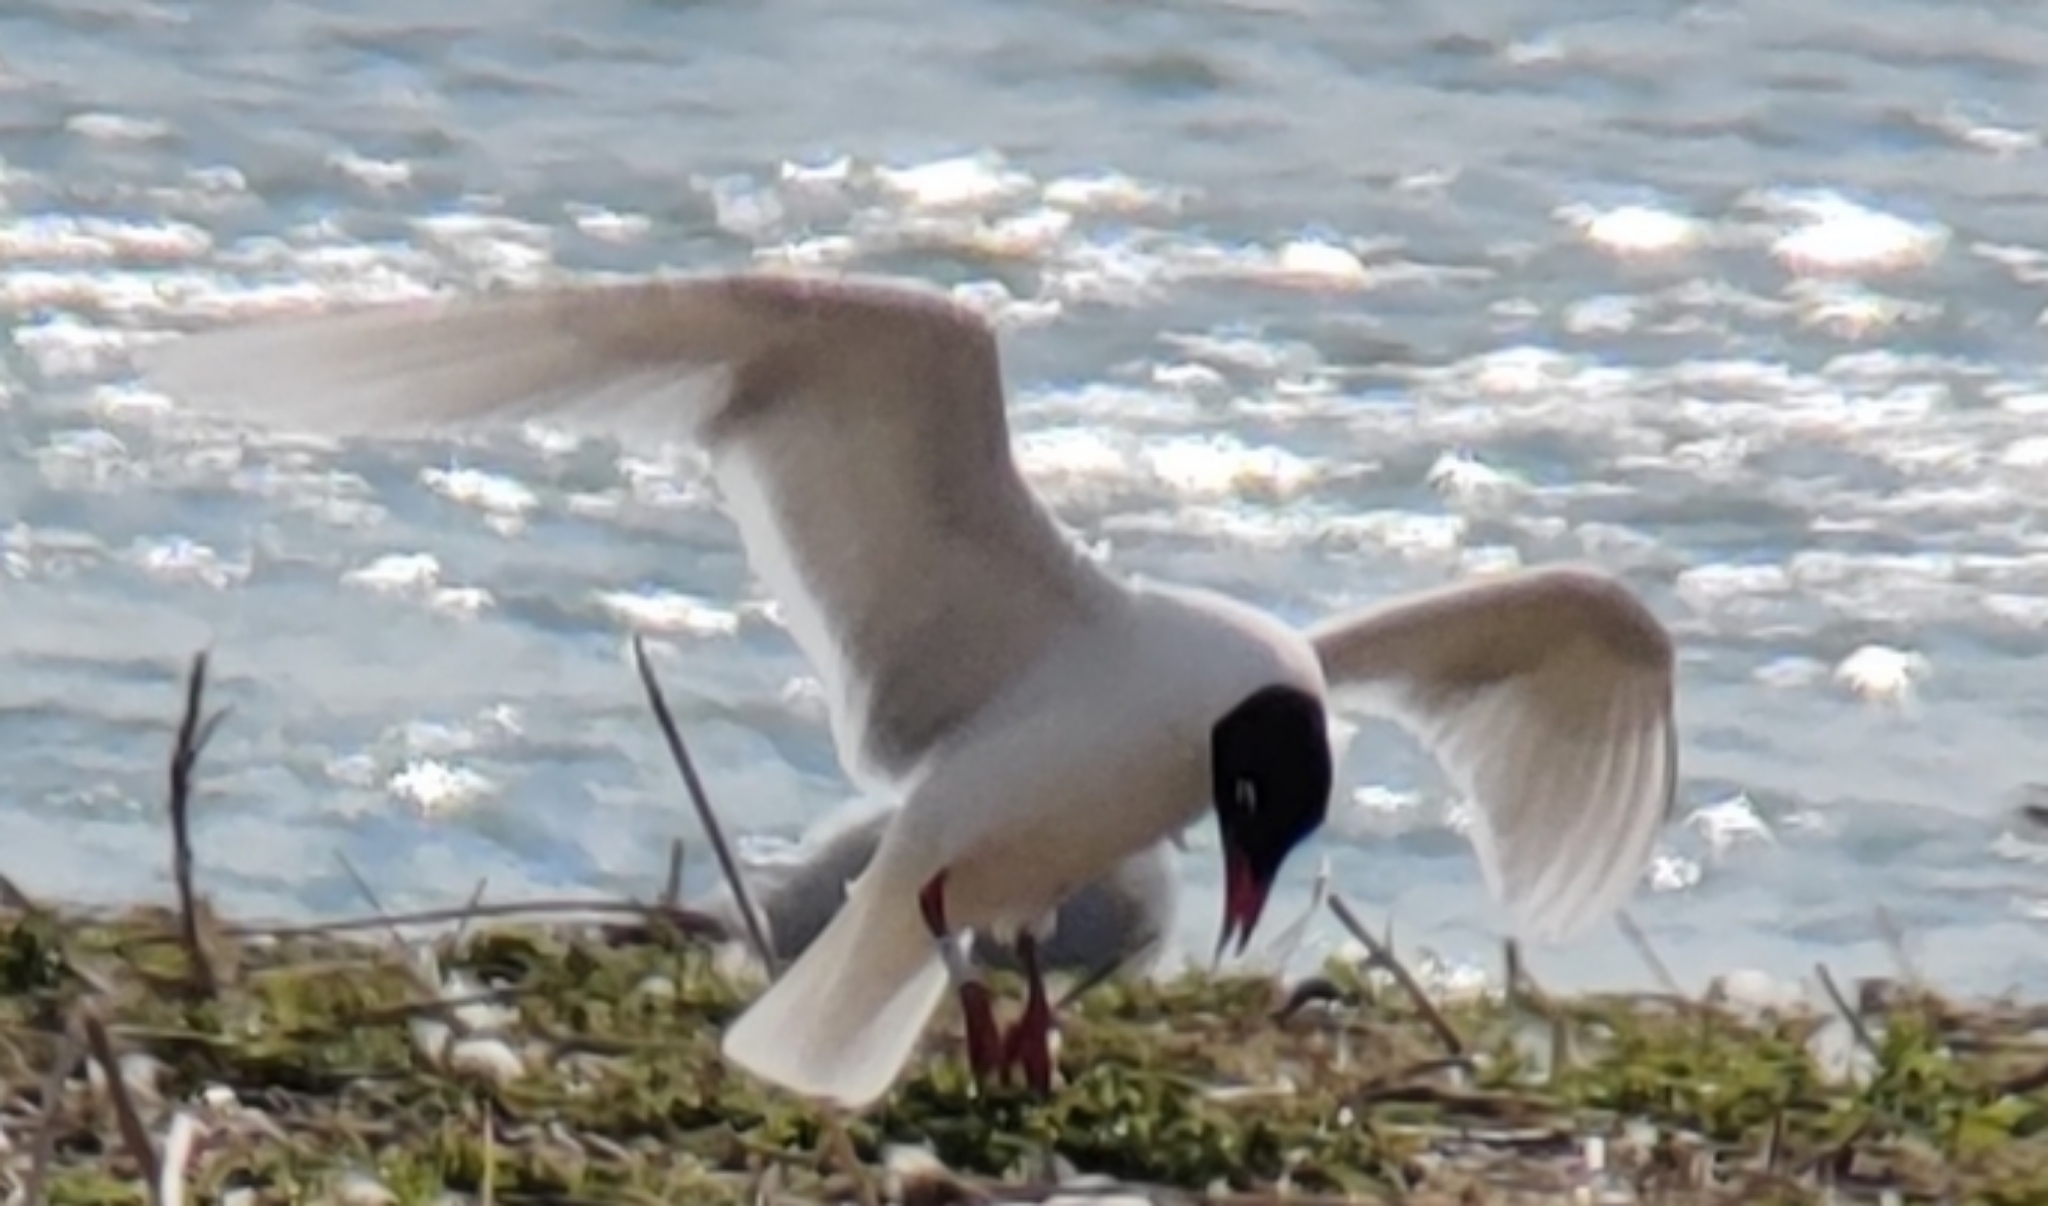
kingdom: Animalia
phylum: Chordata
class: Aves
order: Charadriiformes
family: Laridae
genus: Ichthyaetus
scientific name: Ichthyaetus melanocephalus
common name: Mediterranean gull
